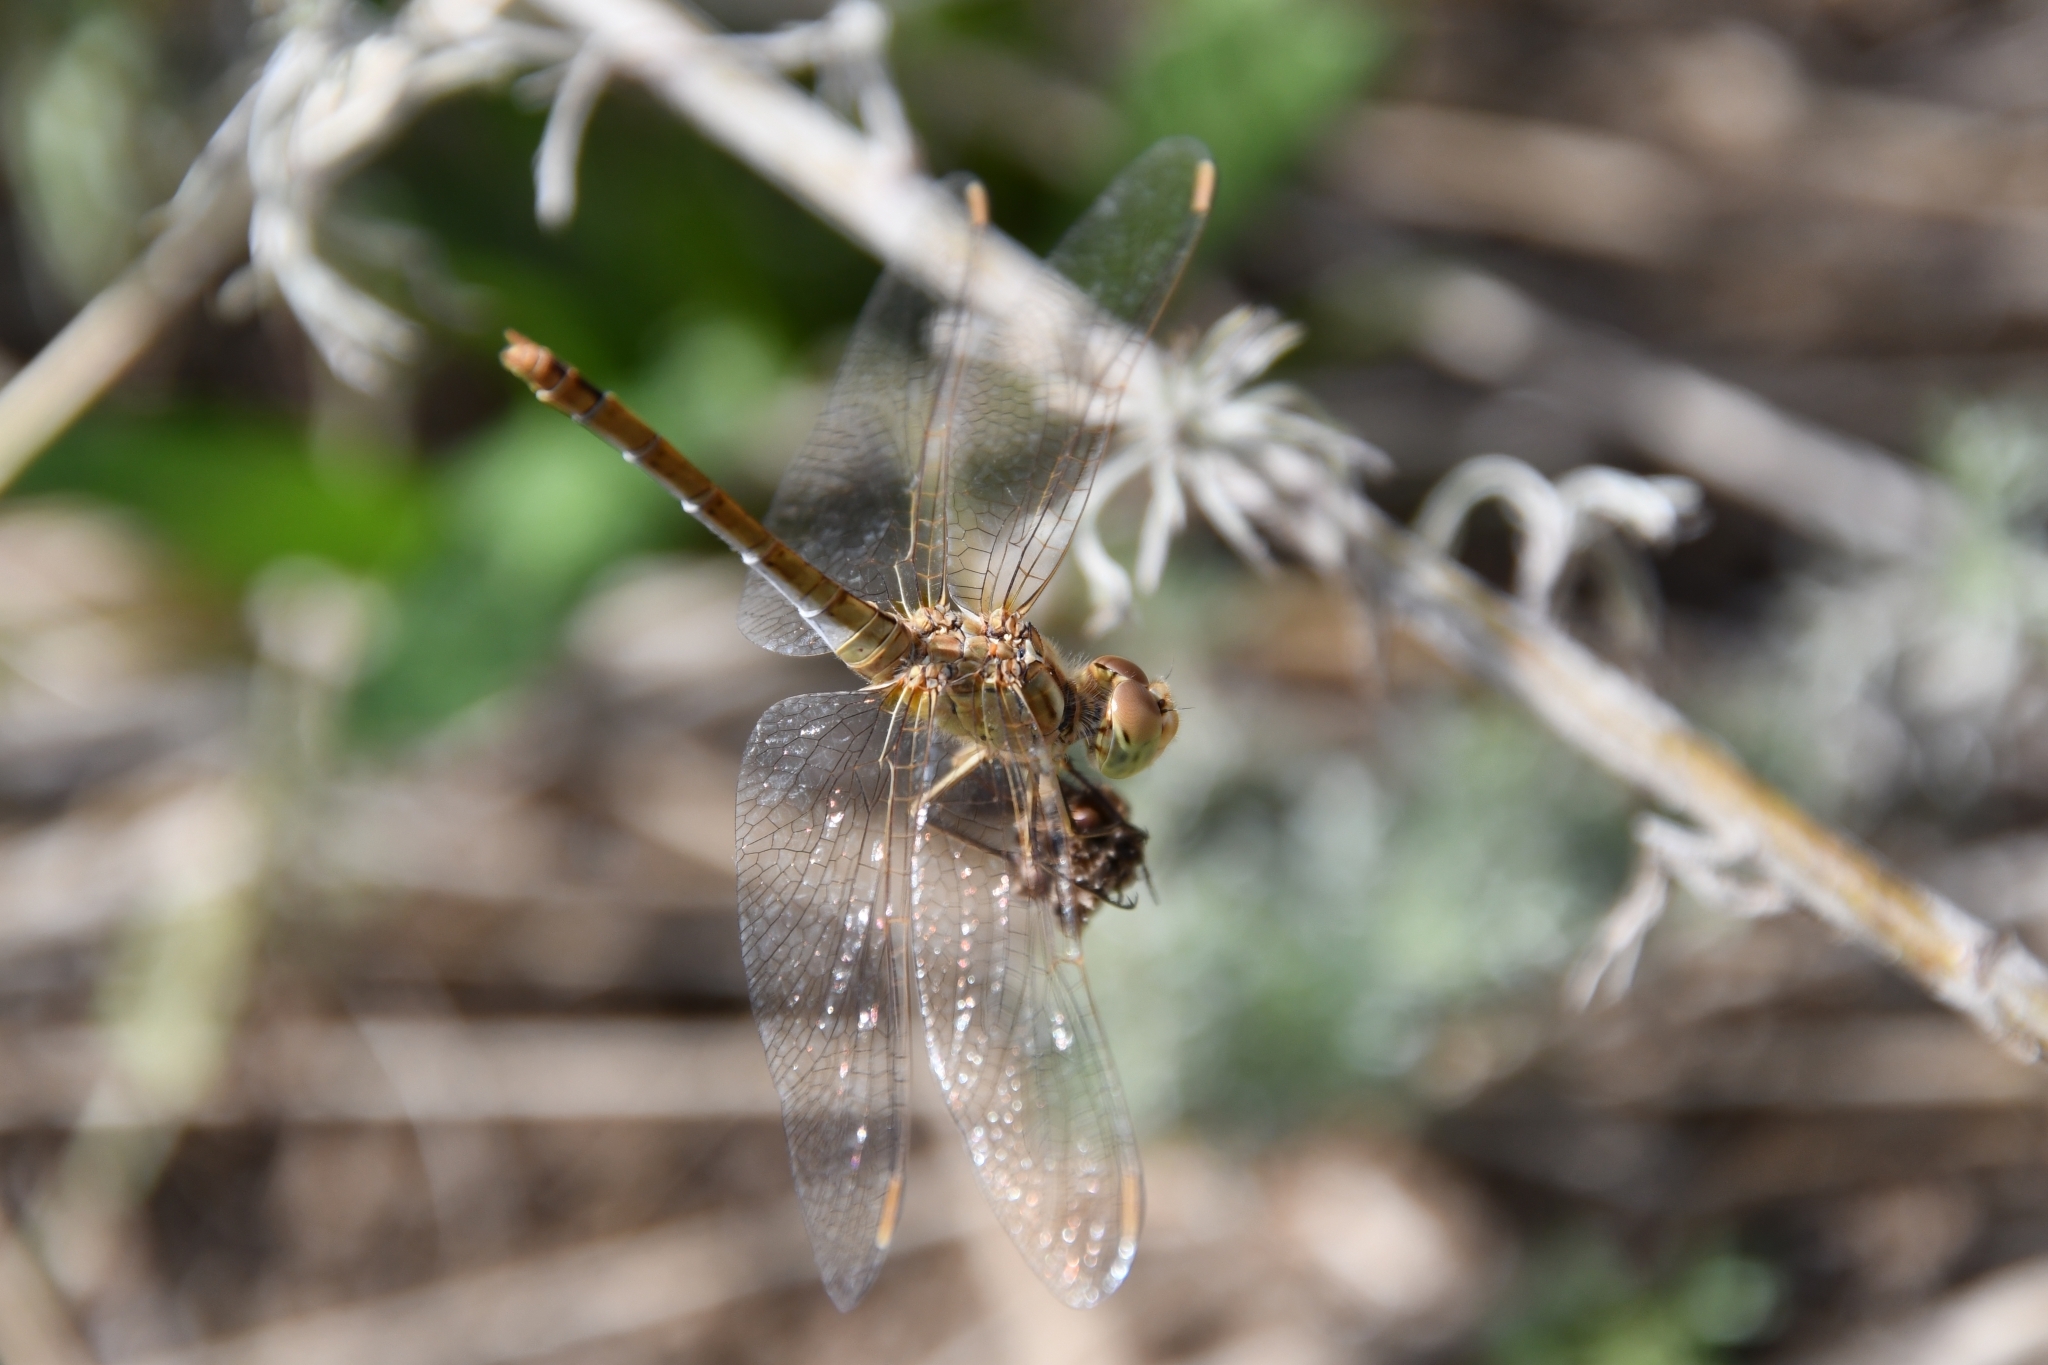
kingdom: Animalia
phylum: Arthropoda
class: Insecta
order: Odonata
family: Libellulidae
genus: Sympetrum
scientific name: Sympetrum meridionale
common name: Southern darter
